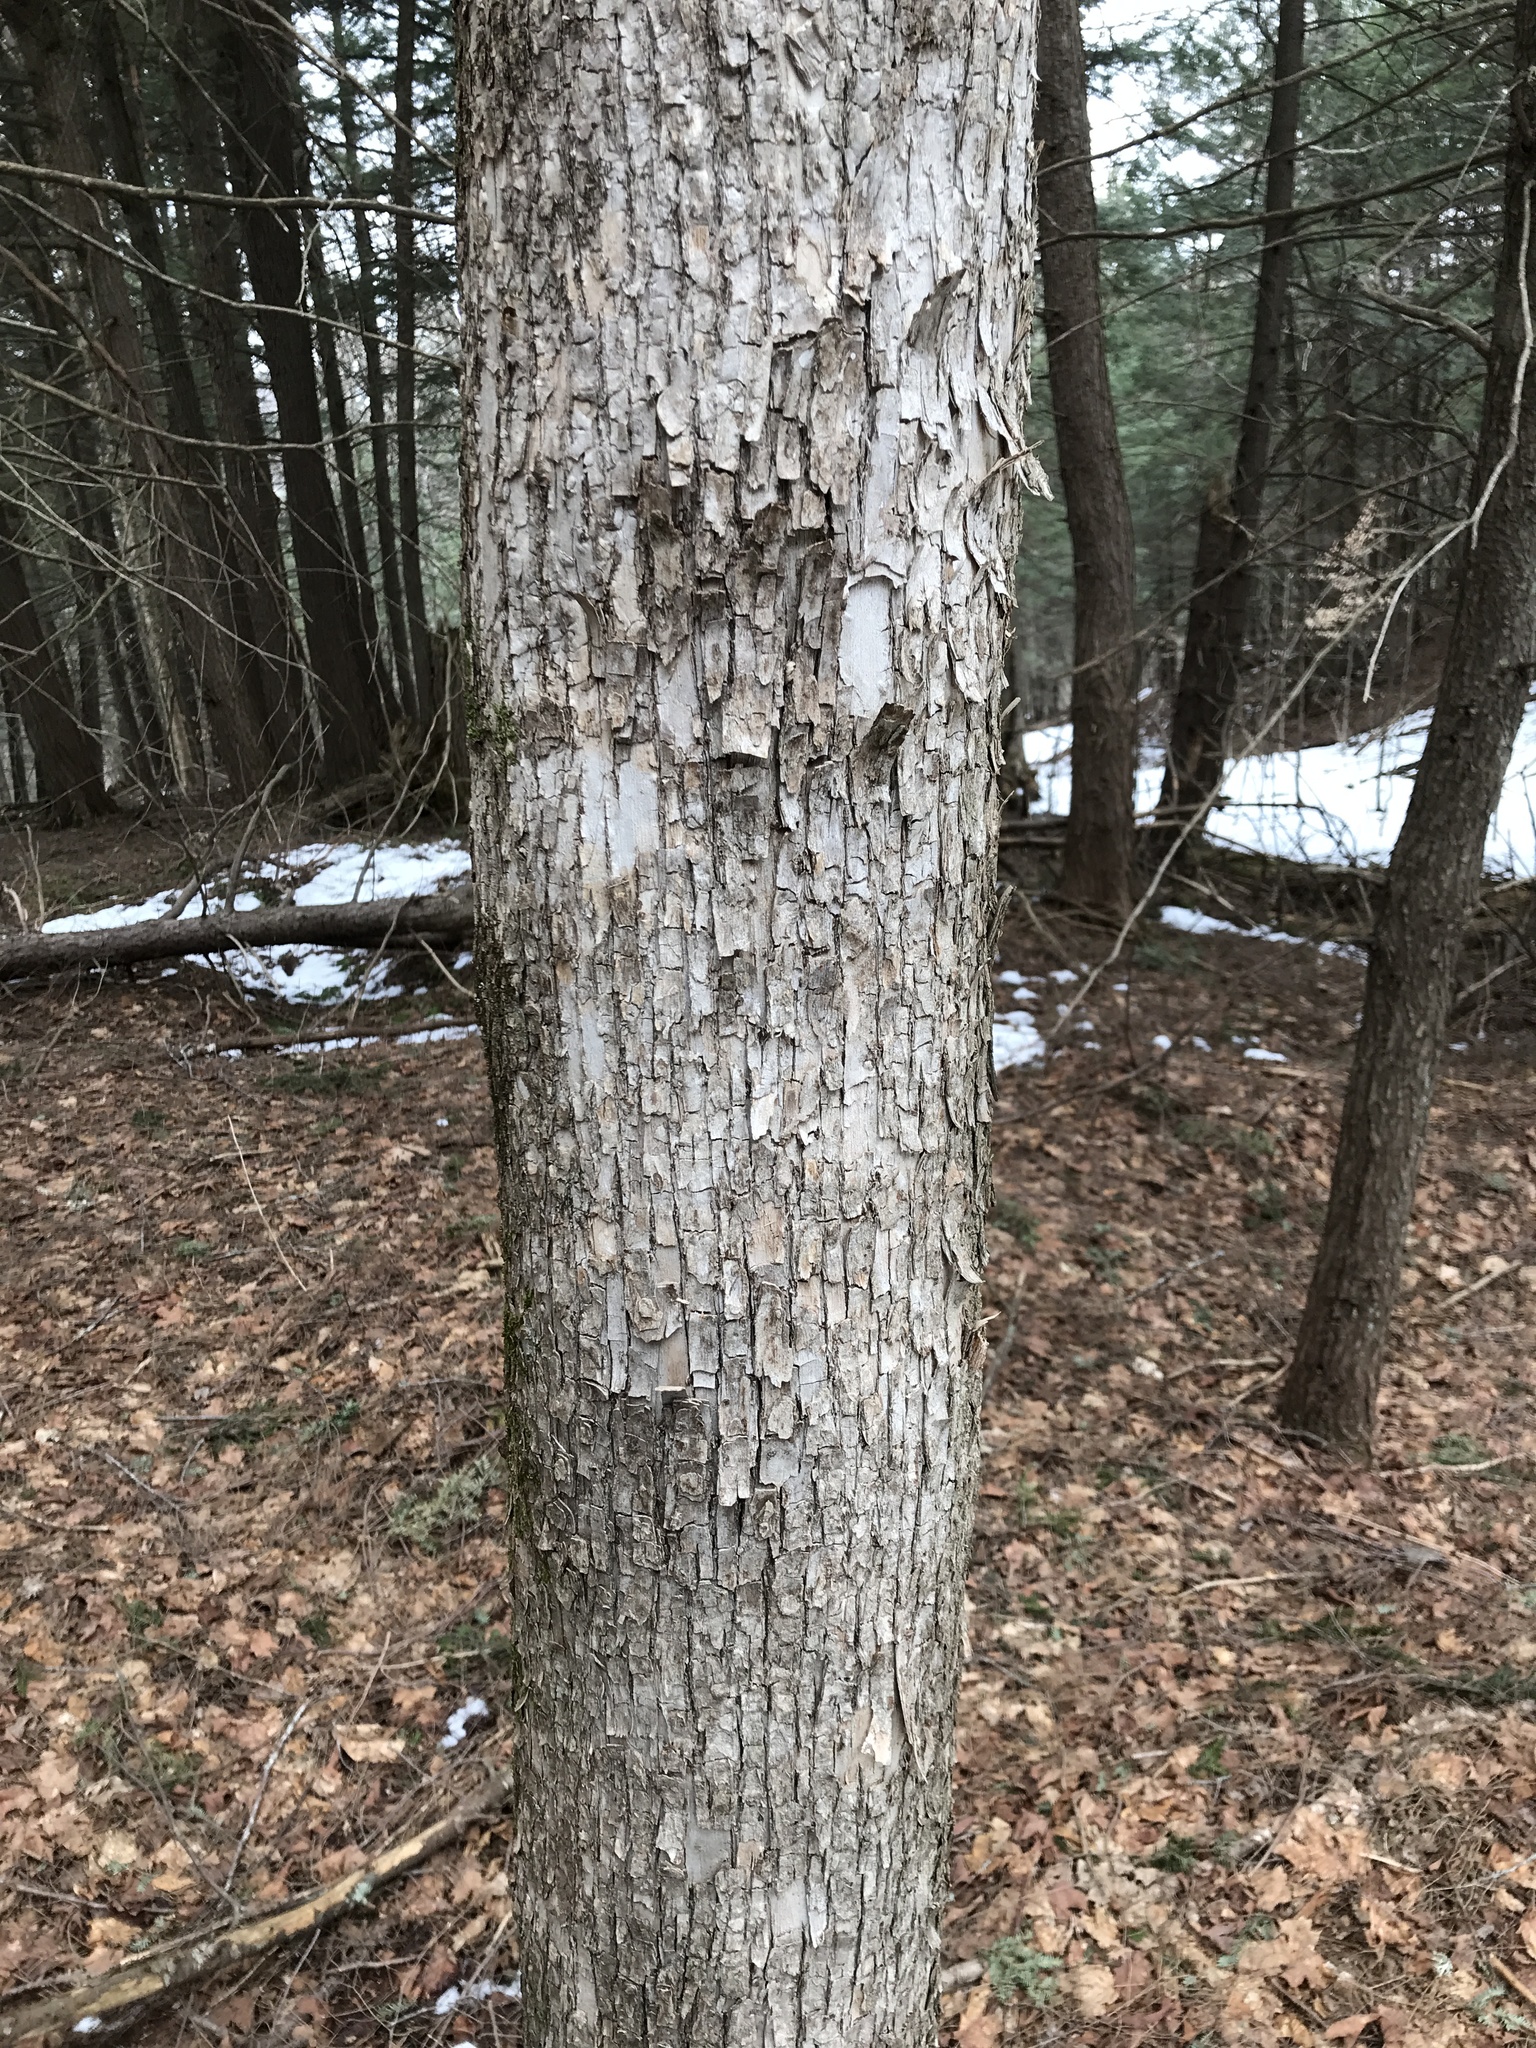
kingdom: Plantae
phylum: Tracheophyta
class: Magnoliopsida
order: Fagales
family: Betulaceae
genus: Ostrya
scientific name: Ostrya virginiana
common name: Ironwood
